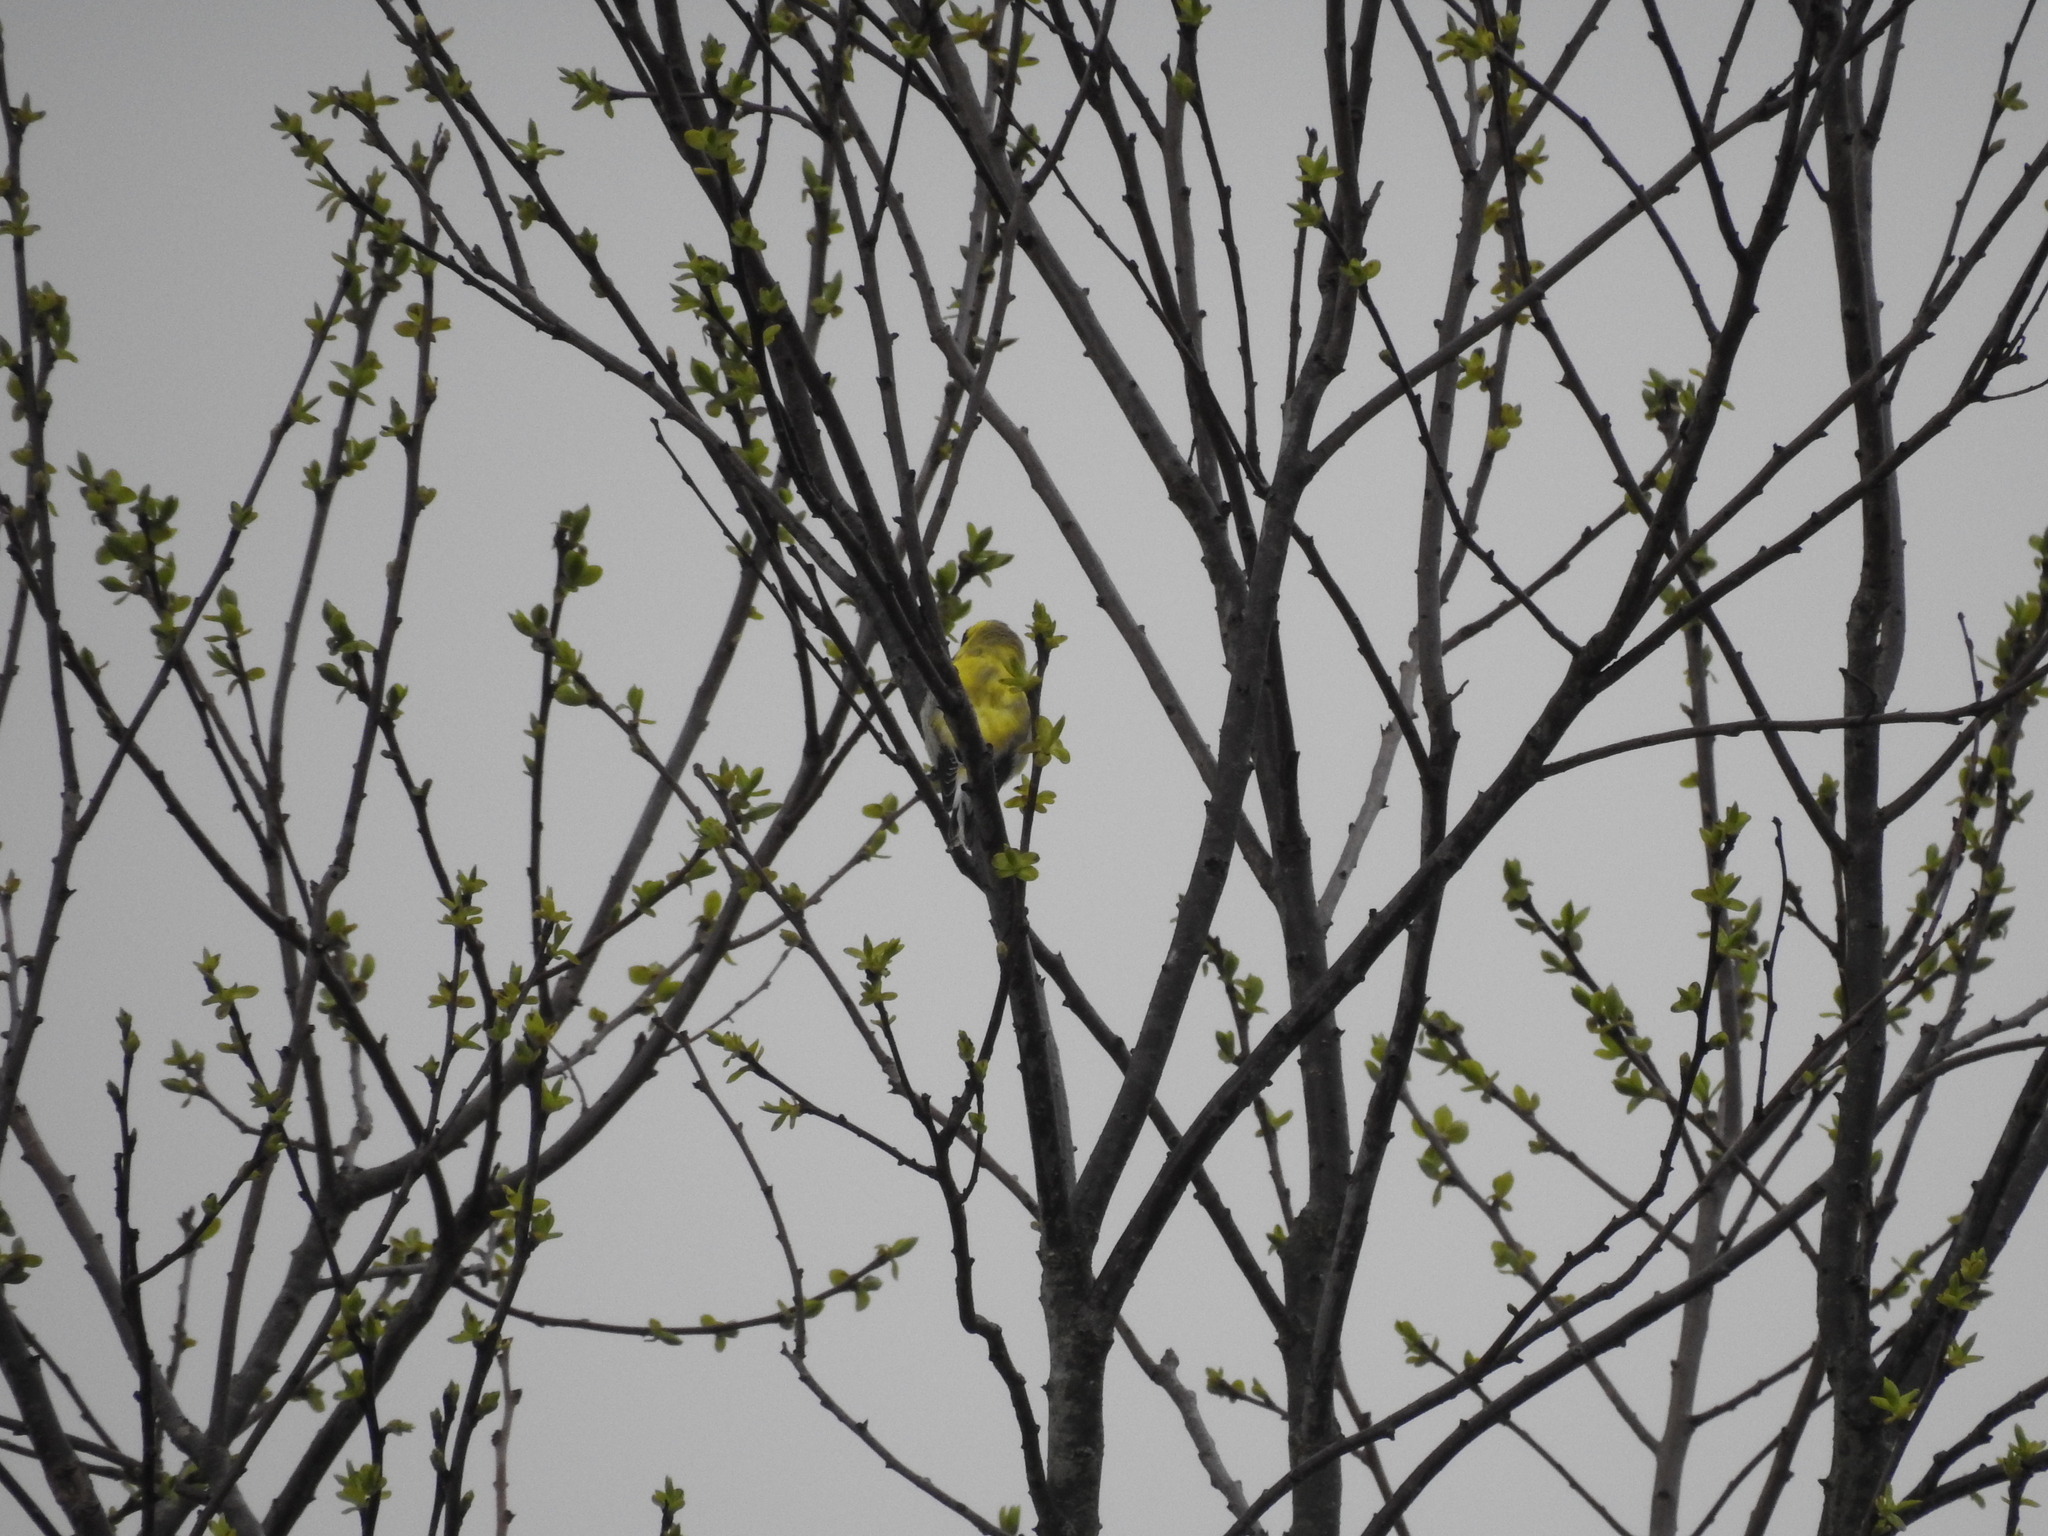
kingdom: Animalia
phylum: Chordata
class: Aves
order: Passeriformes
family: Fringillidae
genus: Spinus
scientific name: Spinus tristis
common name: American goldfinch
